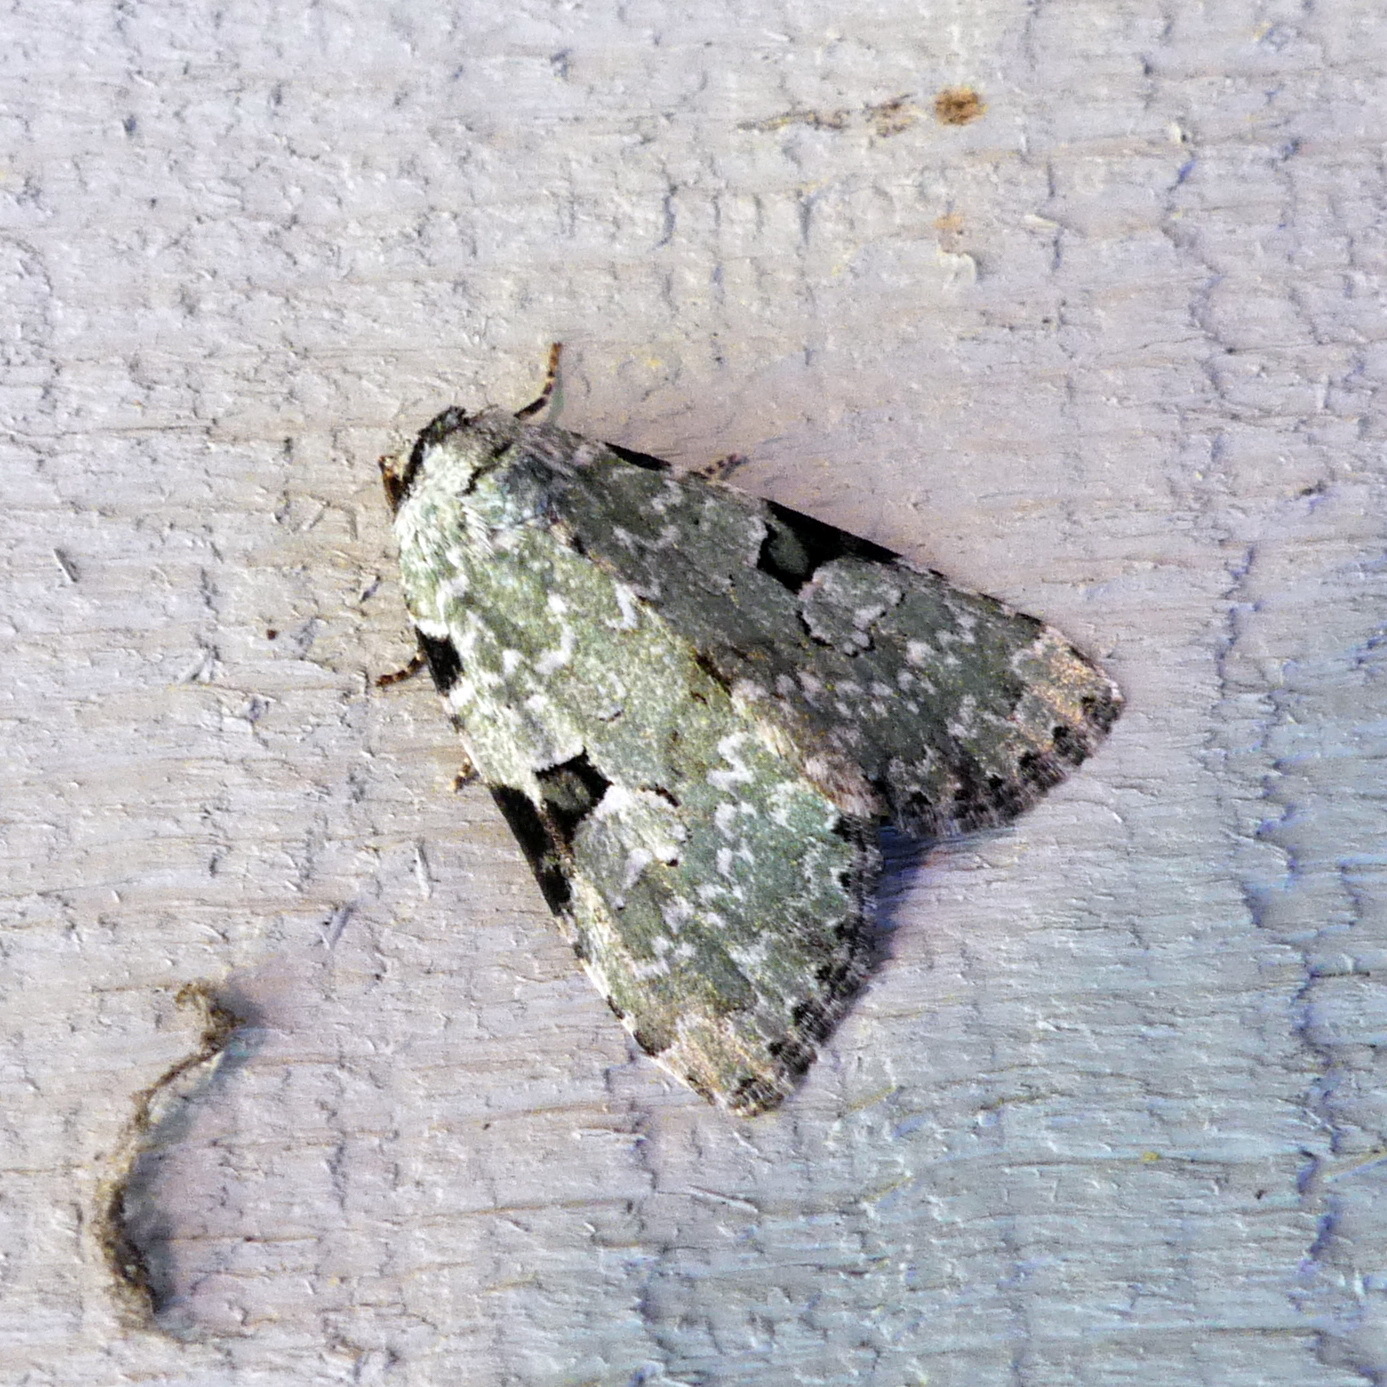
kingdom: Animalia
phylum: Arthropoda
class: Insecta
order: Lepidoptera
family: Noctuidae
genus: Leuconycta
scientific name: Leuconycta diphteroides
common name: Green leuconycta moth
